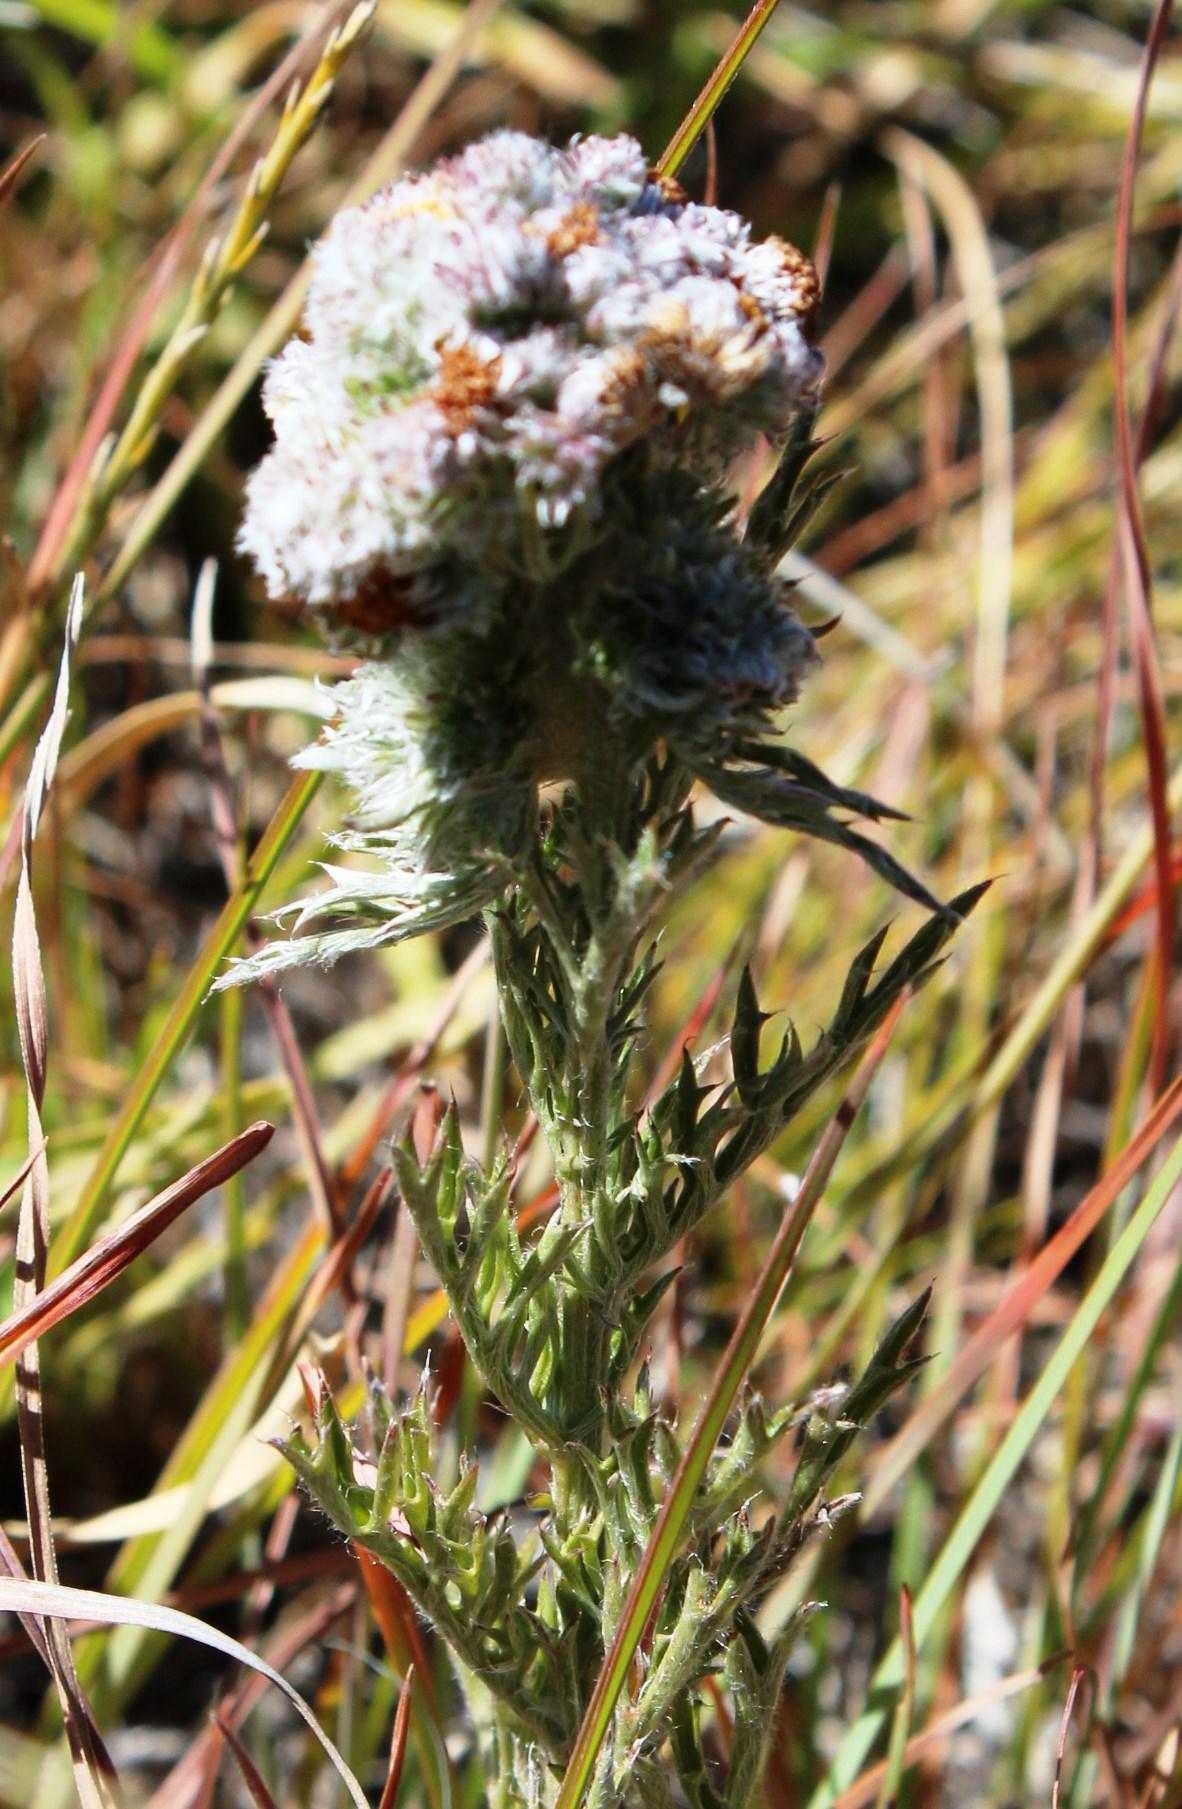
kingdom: Plantae
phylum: Tracheophyta
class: Magnoliopsida
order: Asterales
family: Asteraceae
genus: Schistostephium
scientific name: Schistostephium crataegifolium
